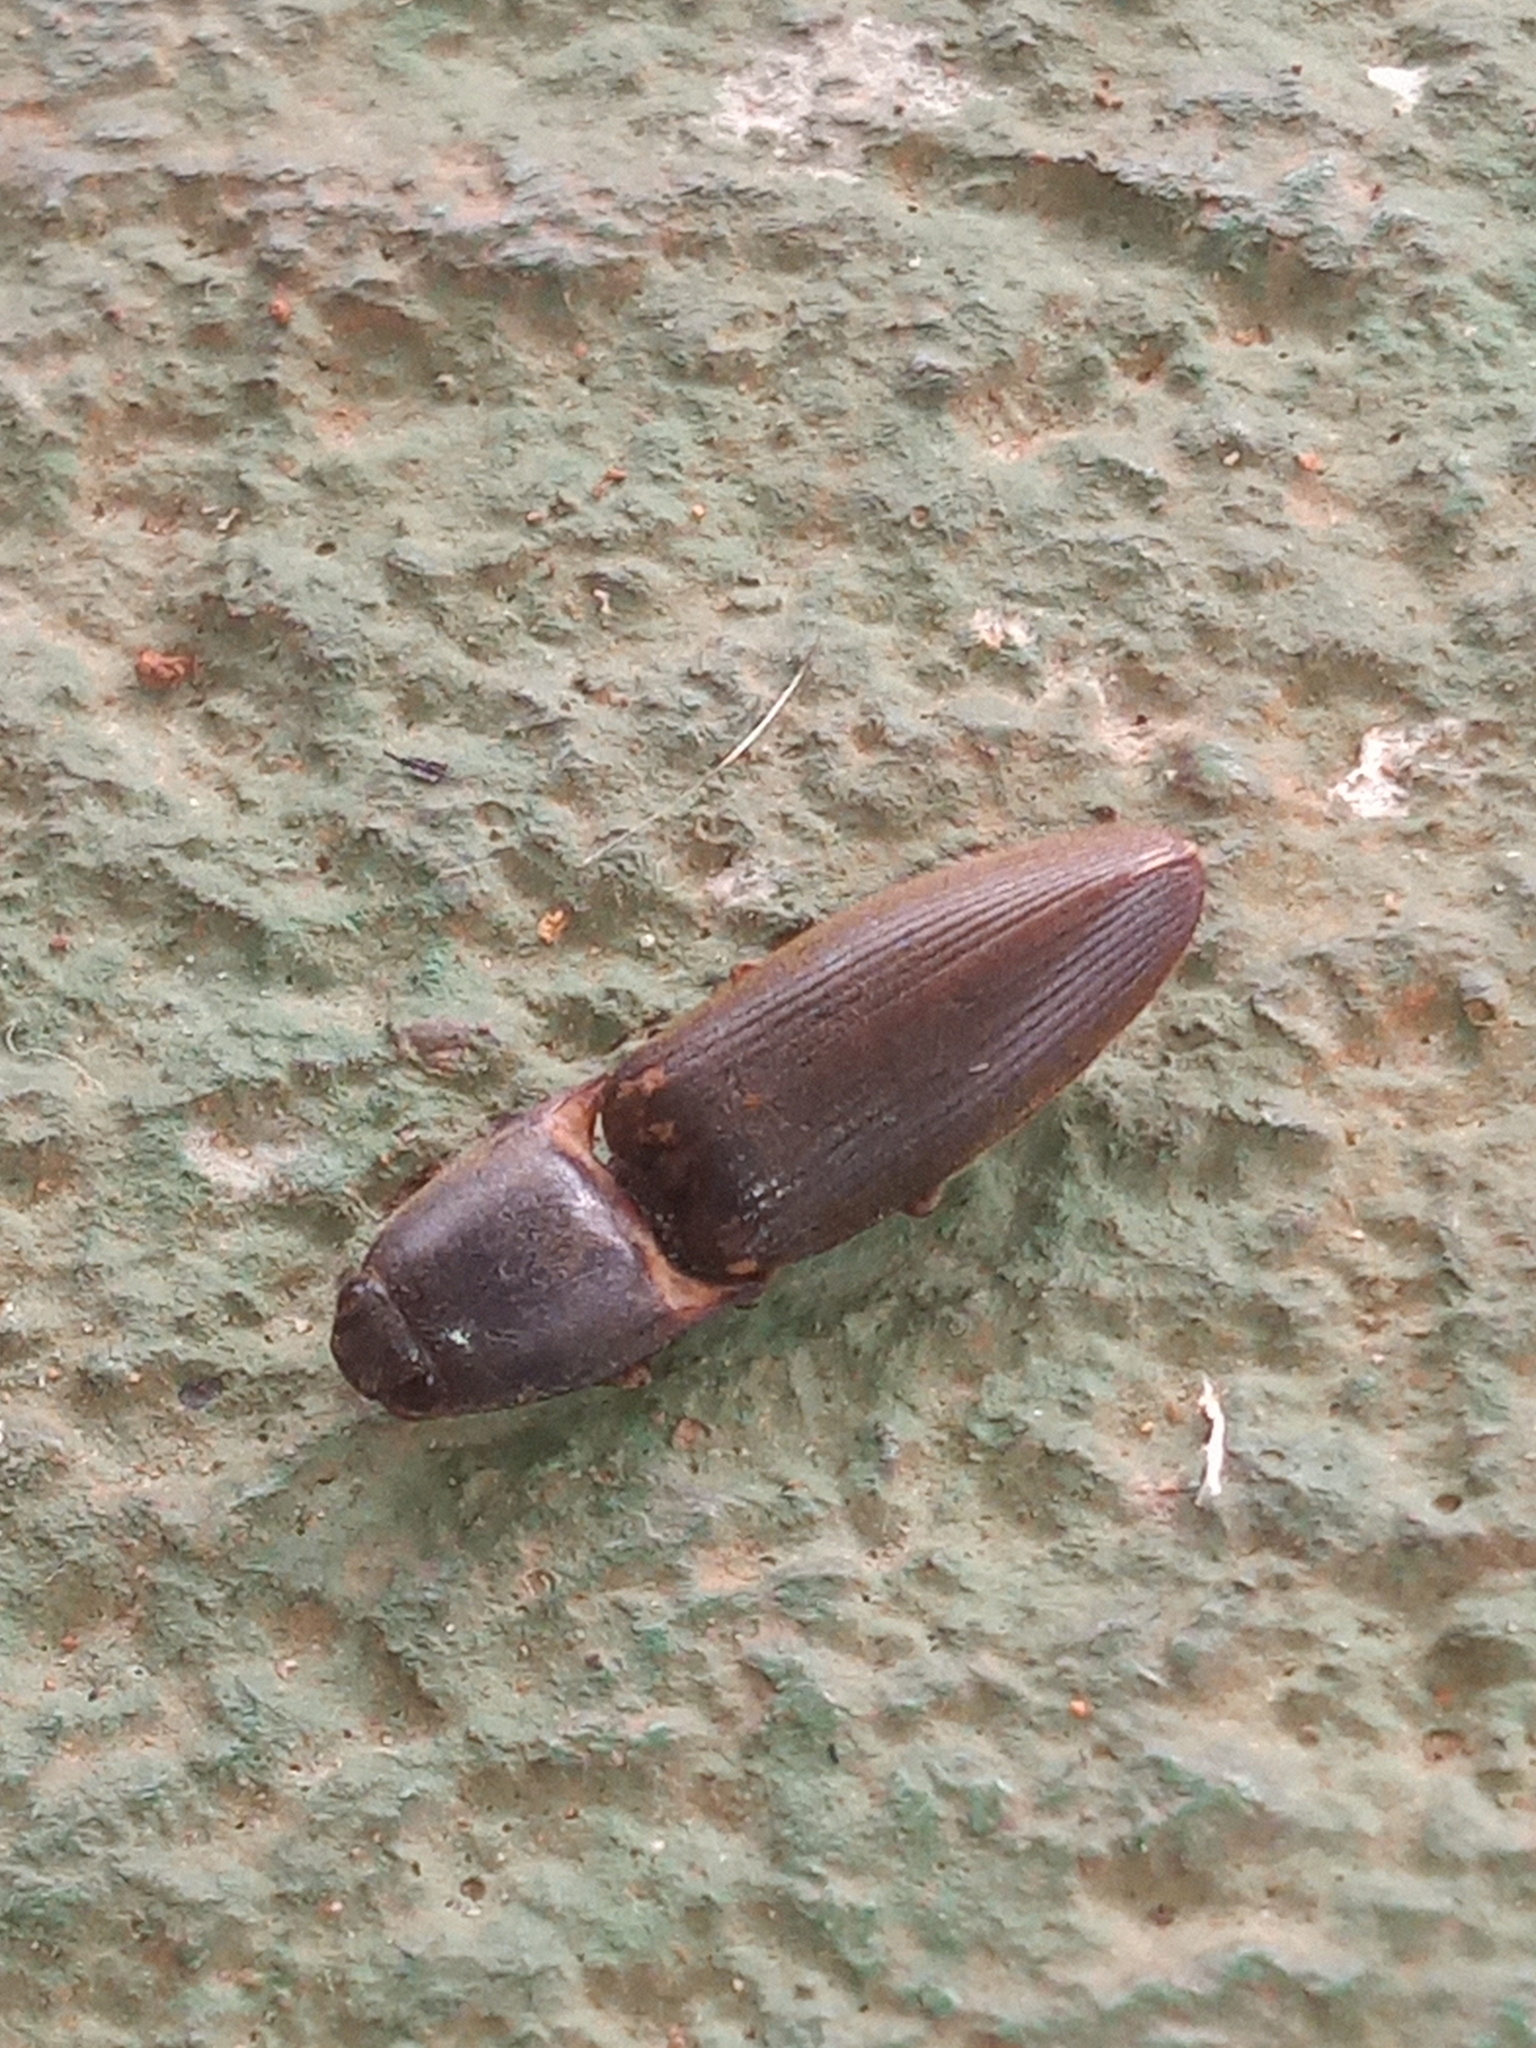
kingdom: Animalia
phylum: Arthropoda
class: Insecta
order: Coleoptera
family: Elateridae
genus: Monocrepidius
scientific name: Monocrepidius
